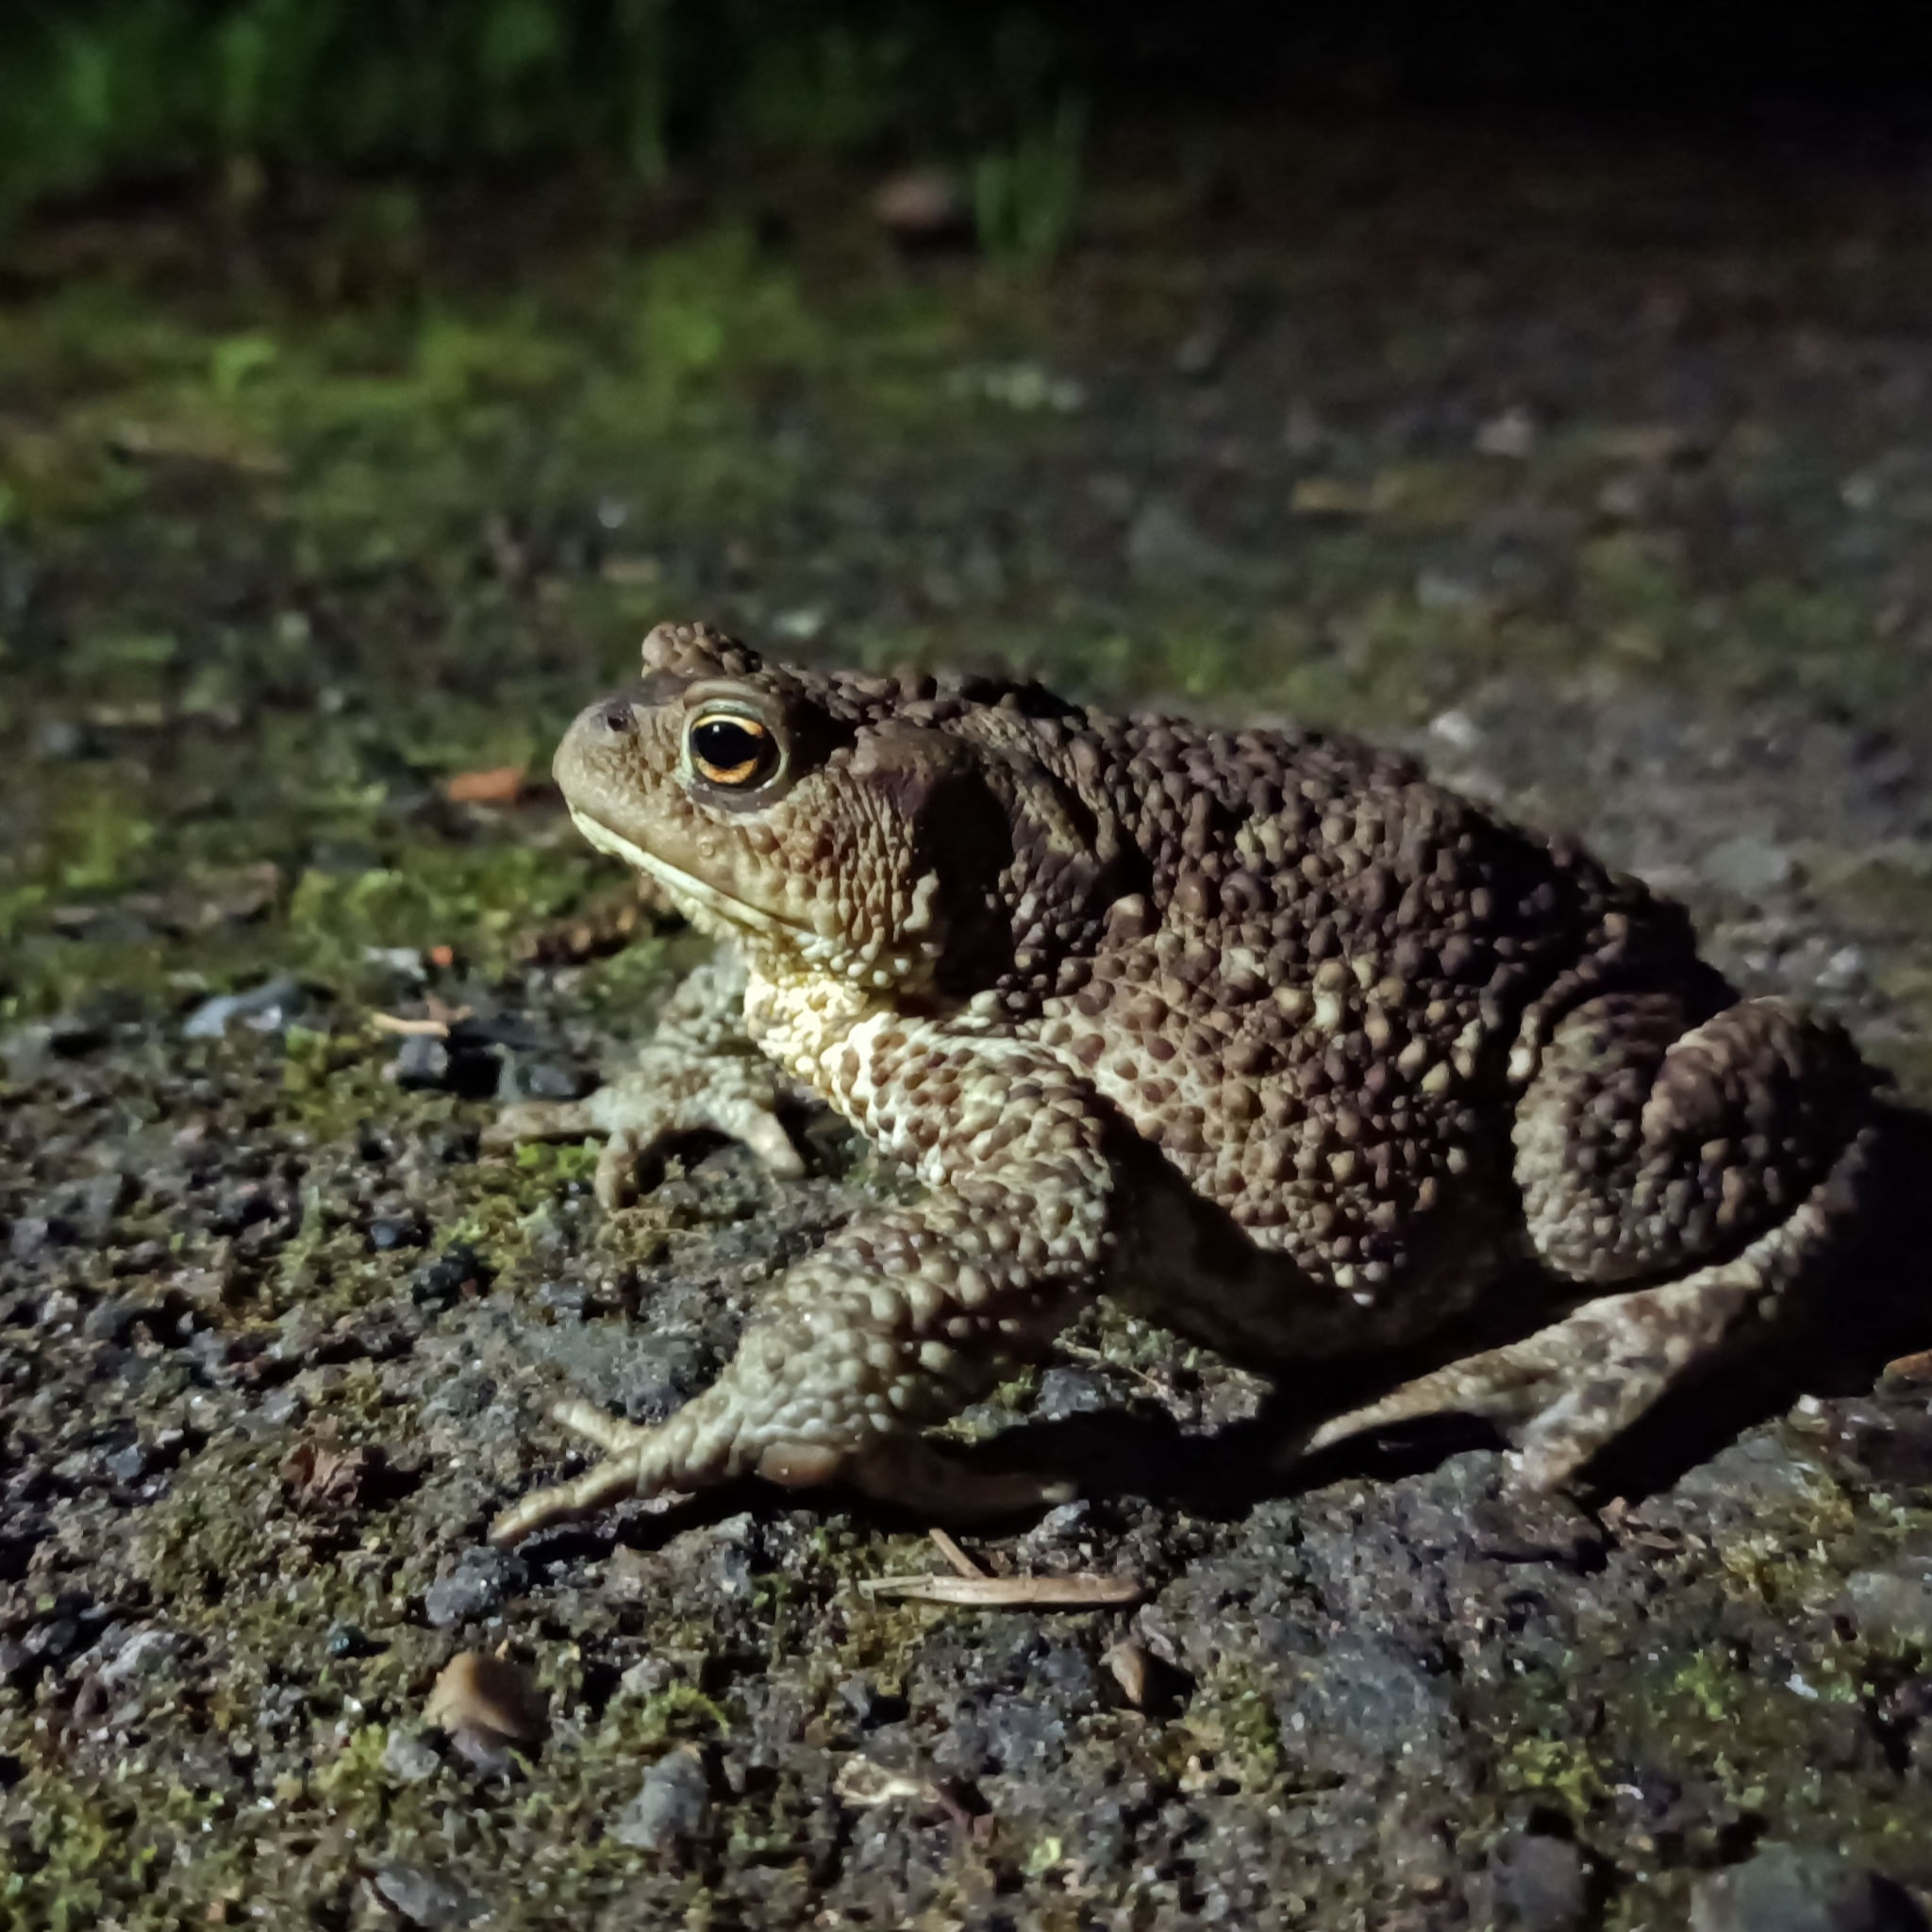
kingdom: Animalia
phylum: Chordata
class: Amphibia
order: Anura
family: Bufonidae
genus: Bufo
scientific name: Bufo bufo
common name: Common toad
